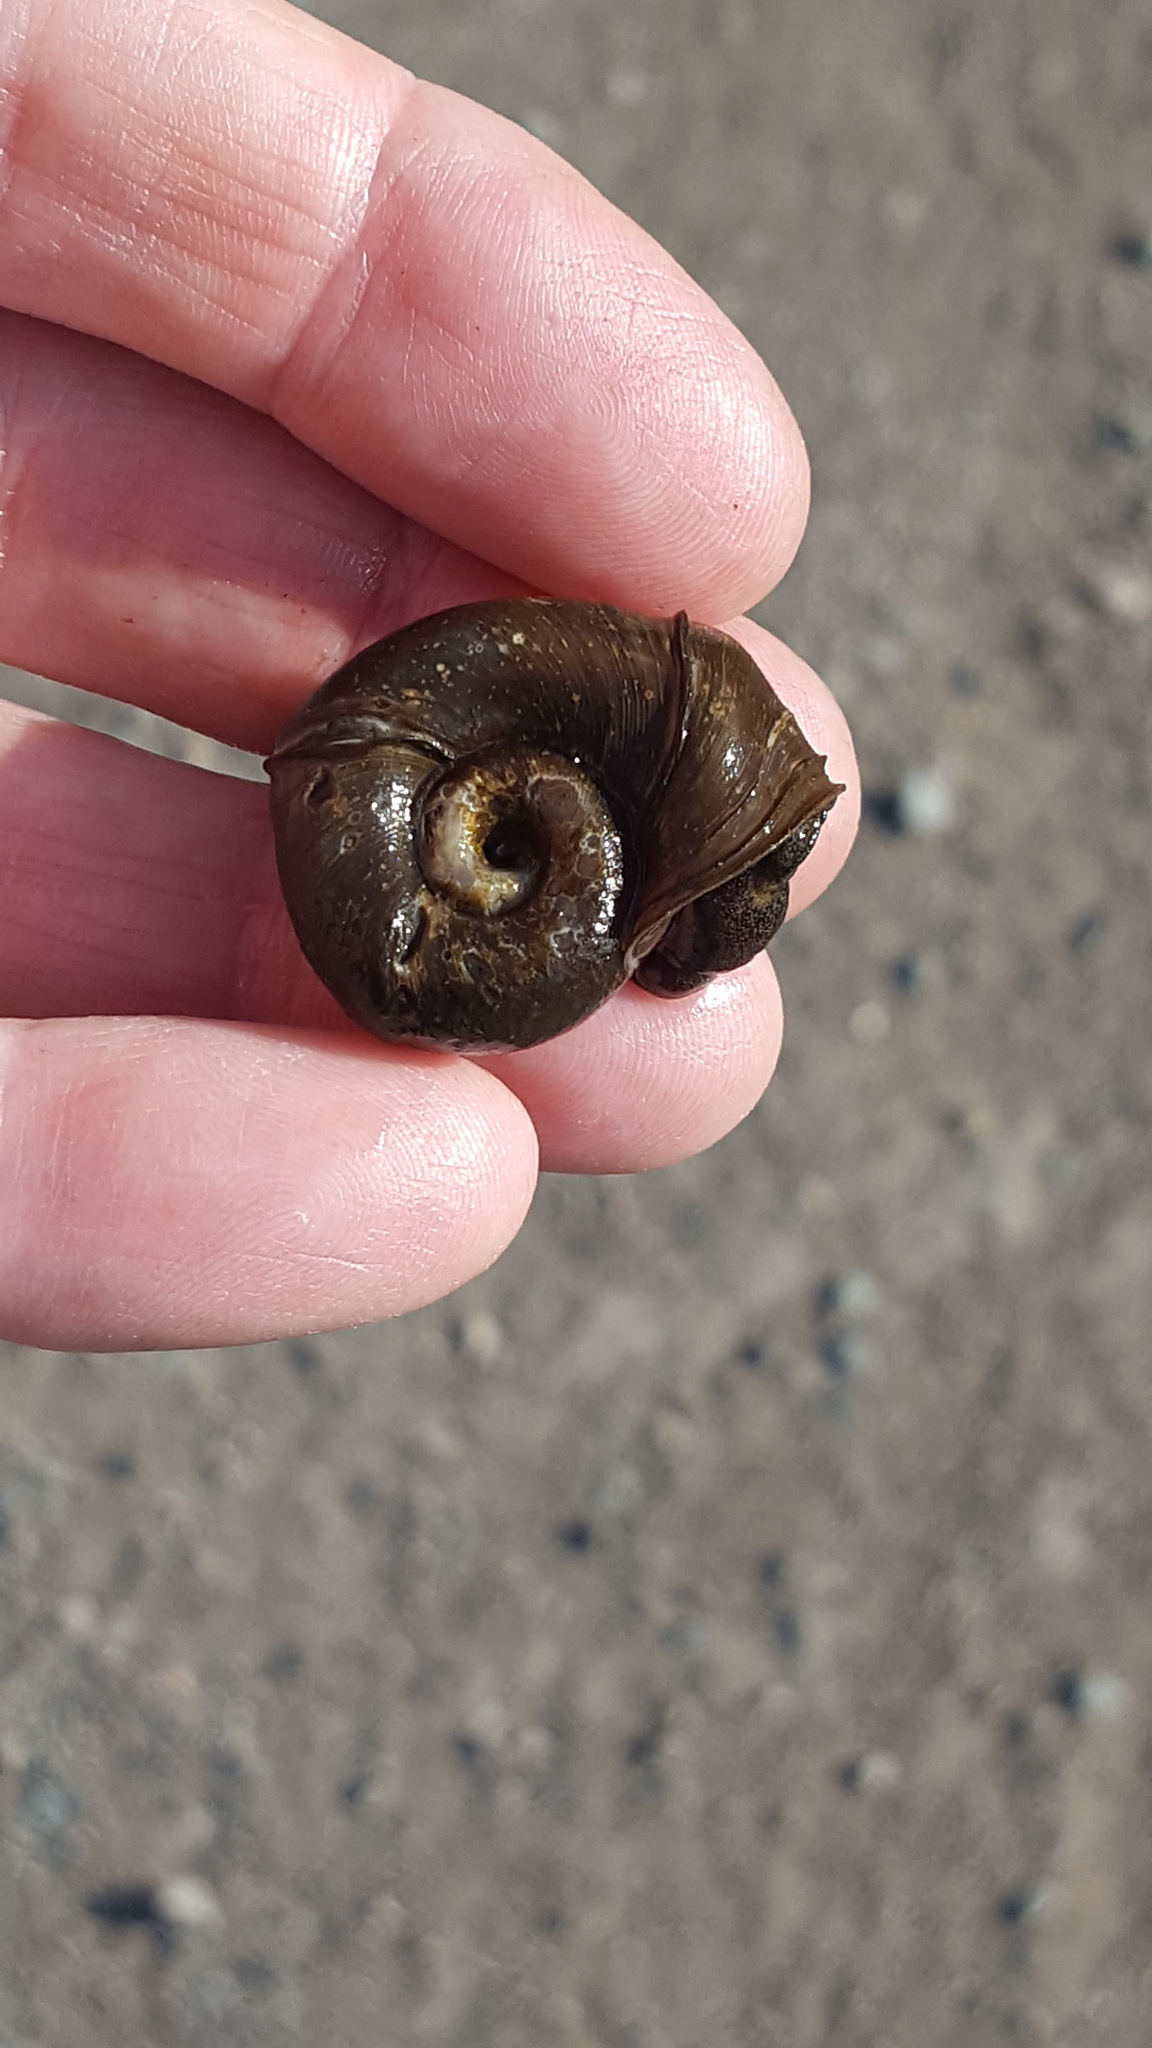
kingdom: Animalia
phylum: Mollusca
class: Gastropoda
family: Planorbidae
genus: Planorbella
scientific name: Planorbella trivolvis
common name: Marsh rams-horn
